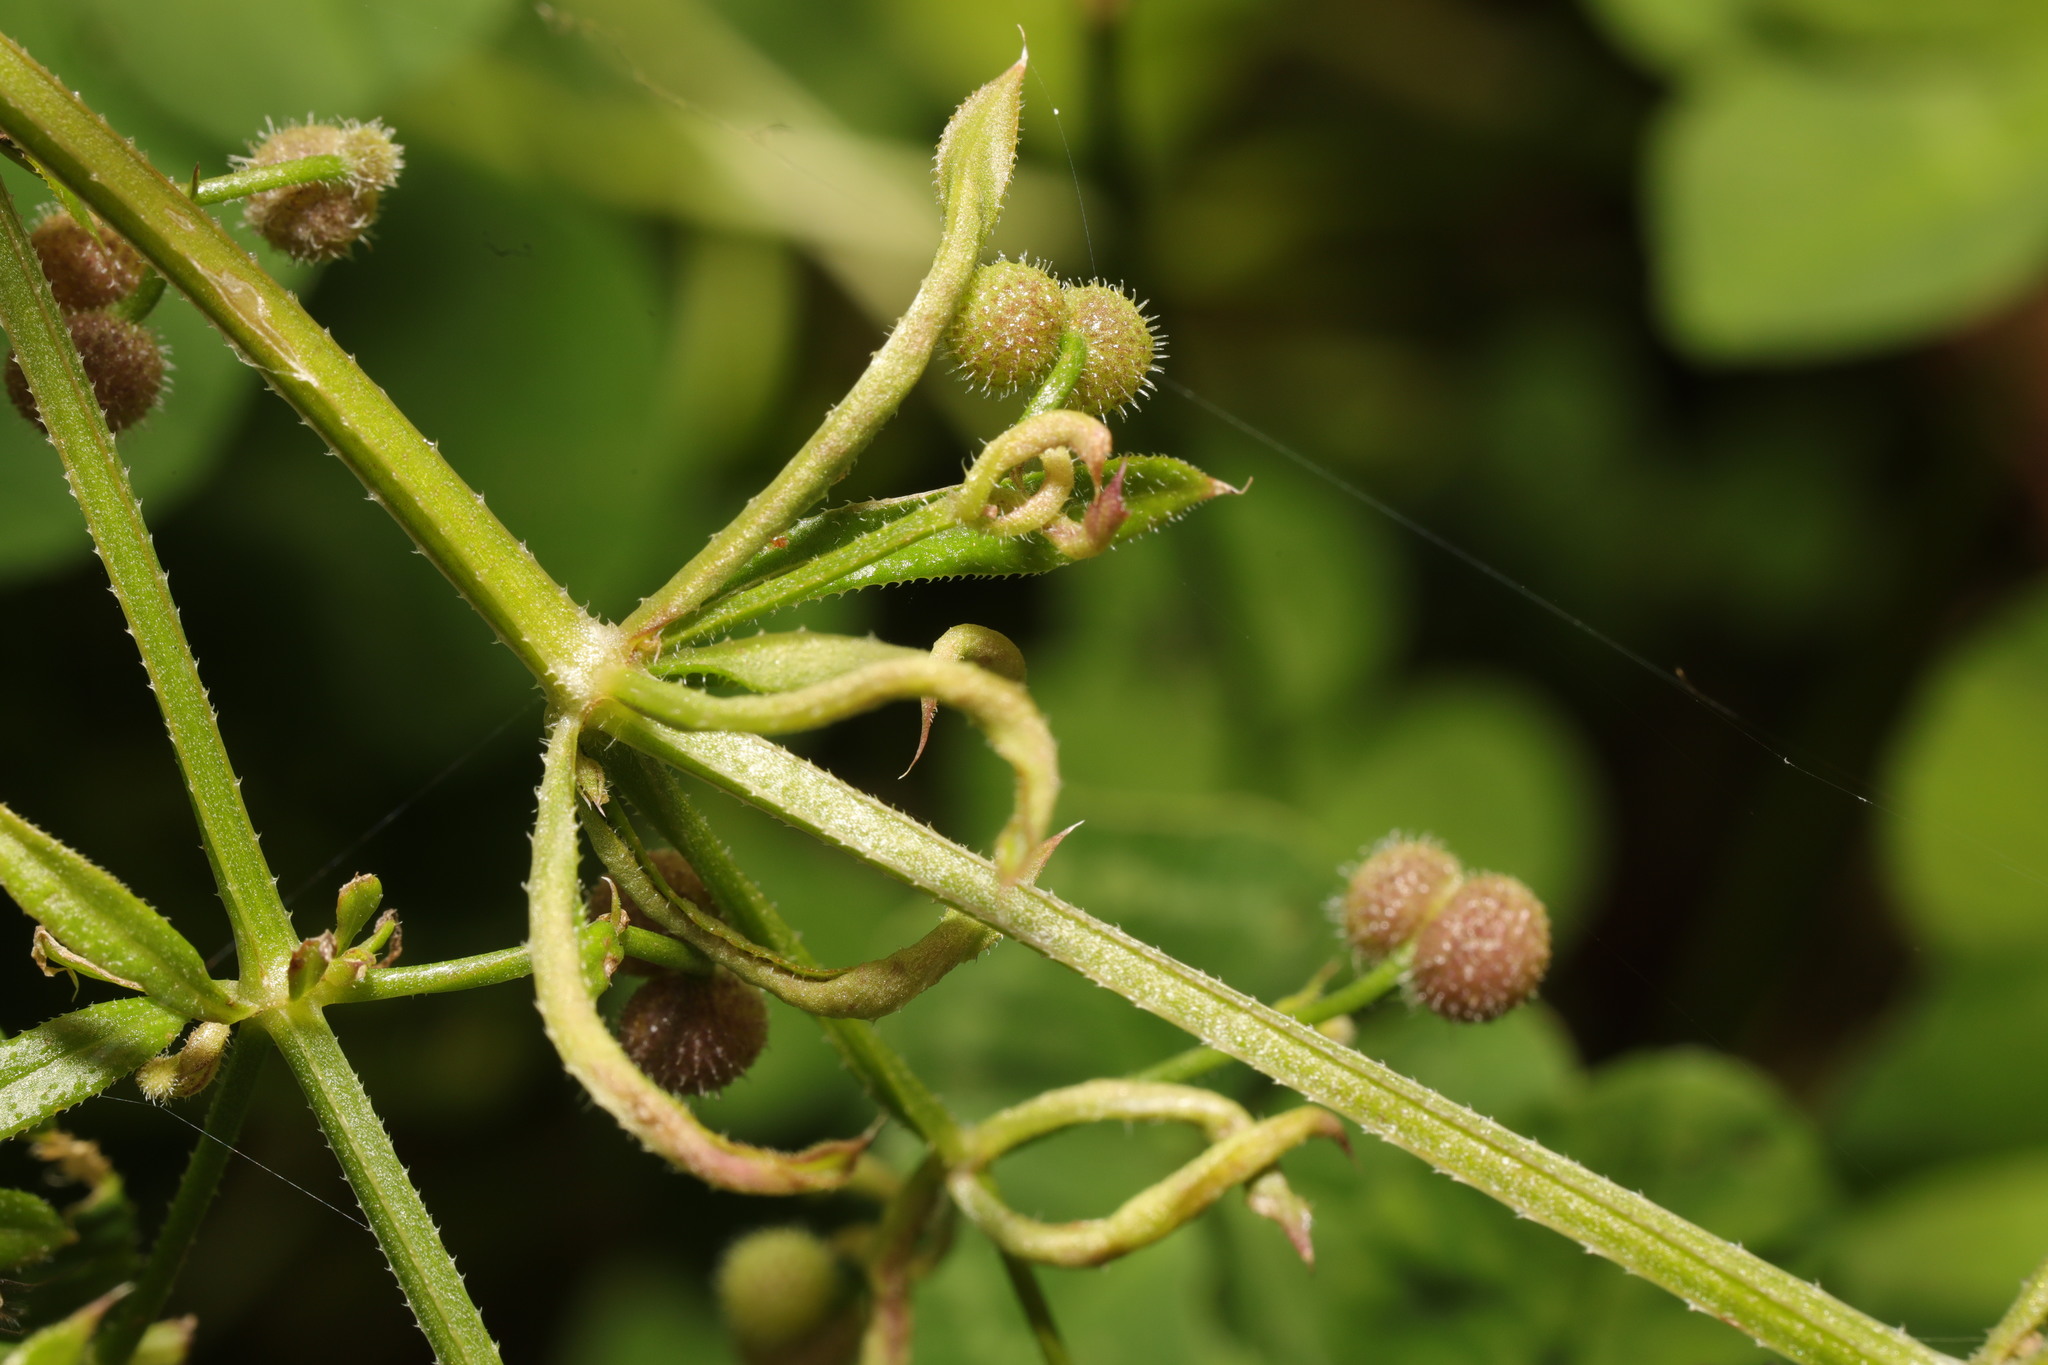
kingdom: Animalia
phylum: Arthropoda
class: Arachnida
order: Trombidiformes
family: Eriophyidae
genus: Cecidophyes
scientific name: Cecidophyes rouhollahi
